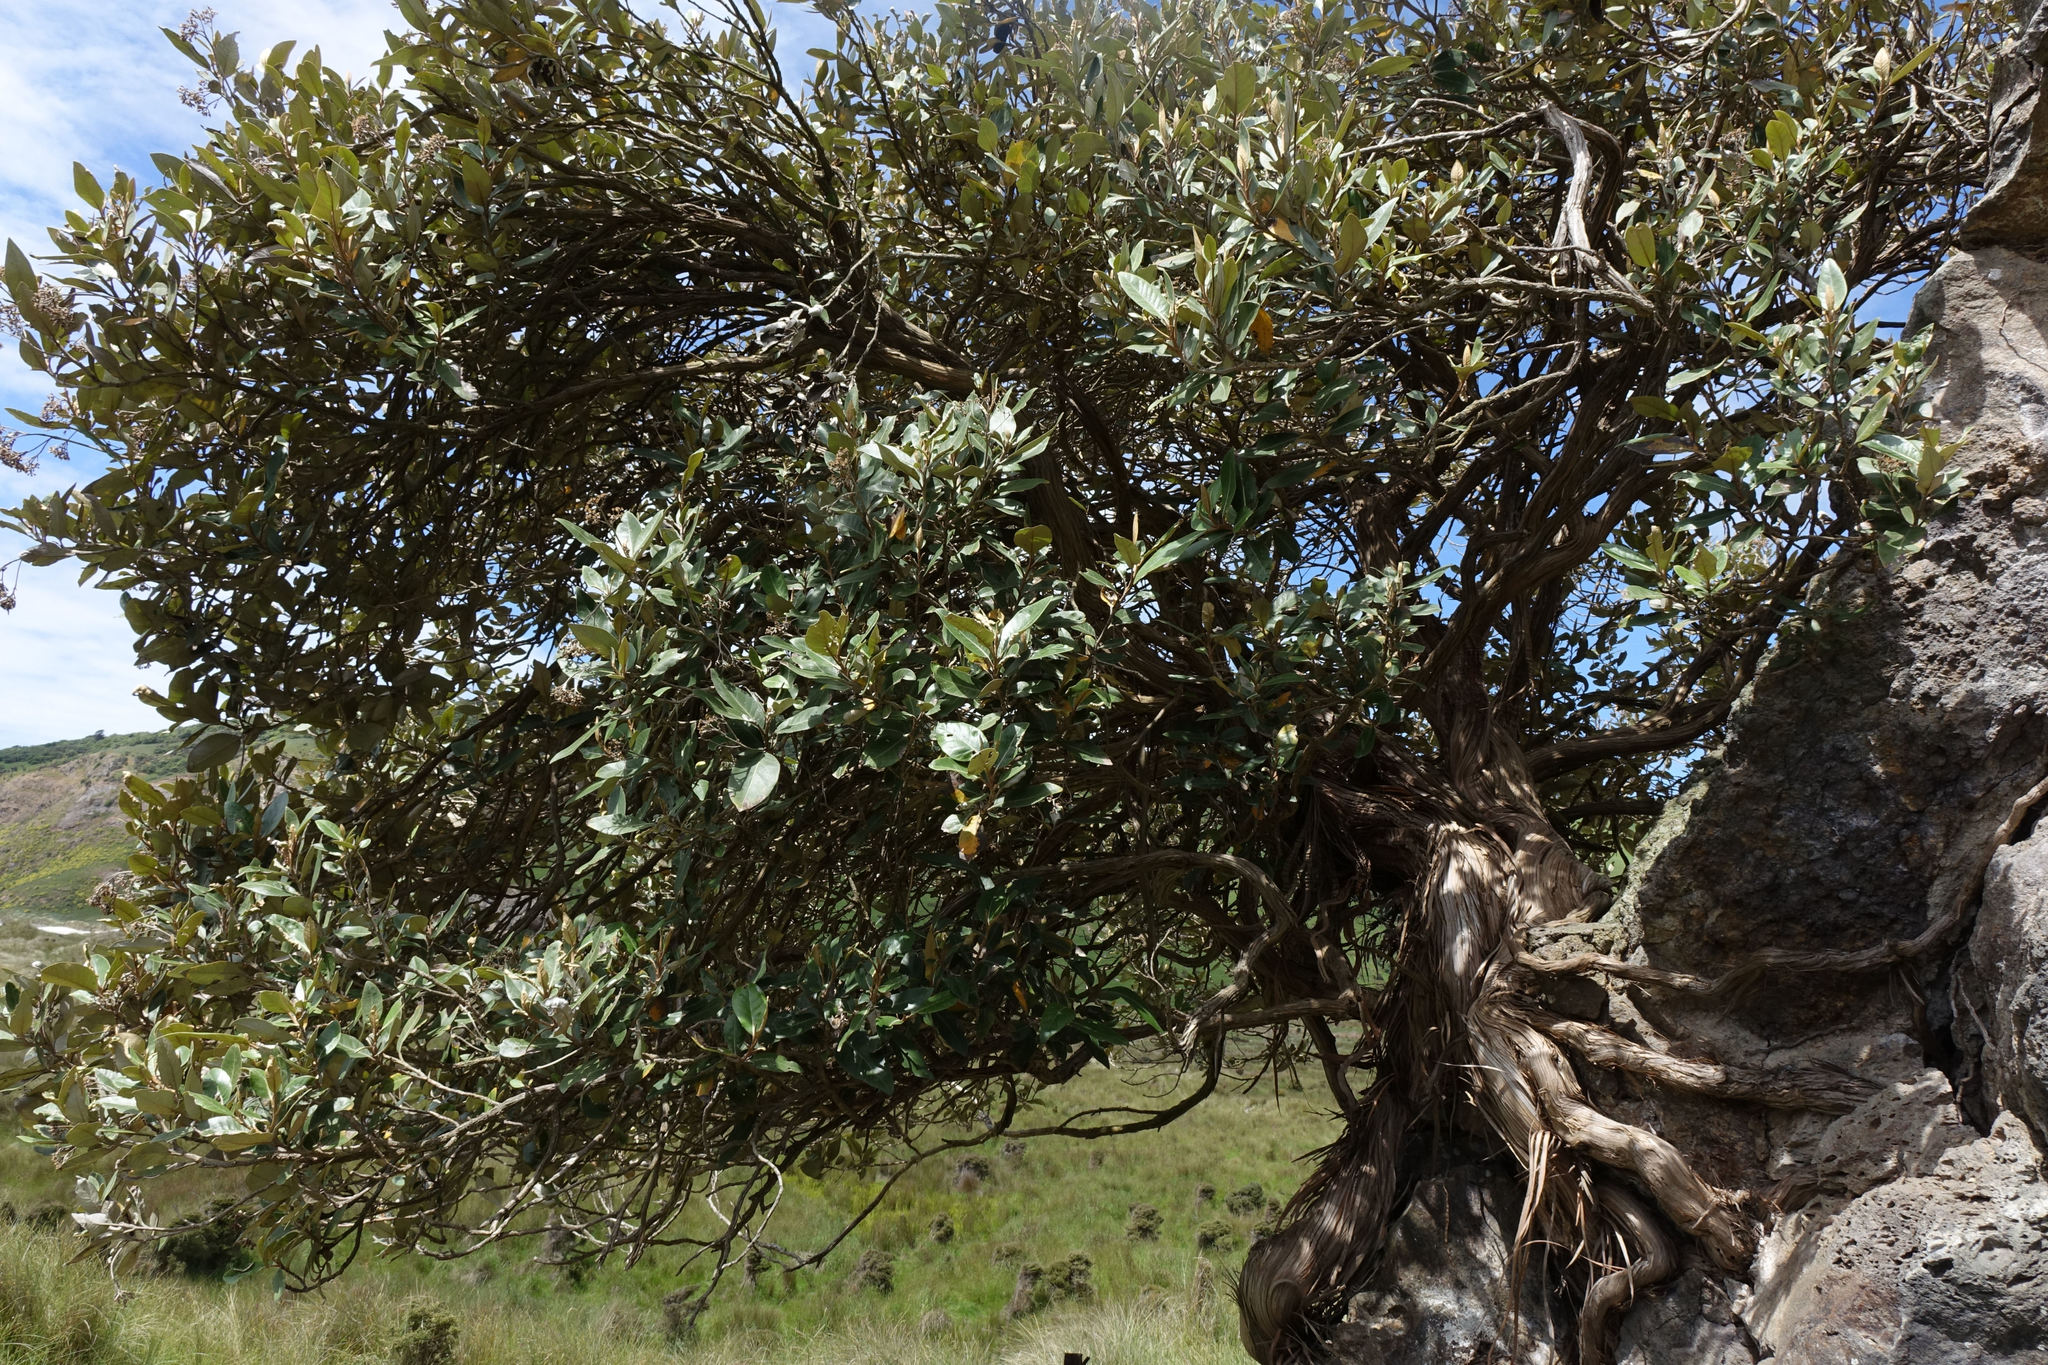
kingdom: Plantae
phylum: Tracheophyta
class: Magnoliopsida
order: Asterales
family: Asteraceae
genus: Olearia
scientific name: Olearia avicenniifolia
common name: Mangrove-leaf daisybush
